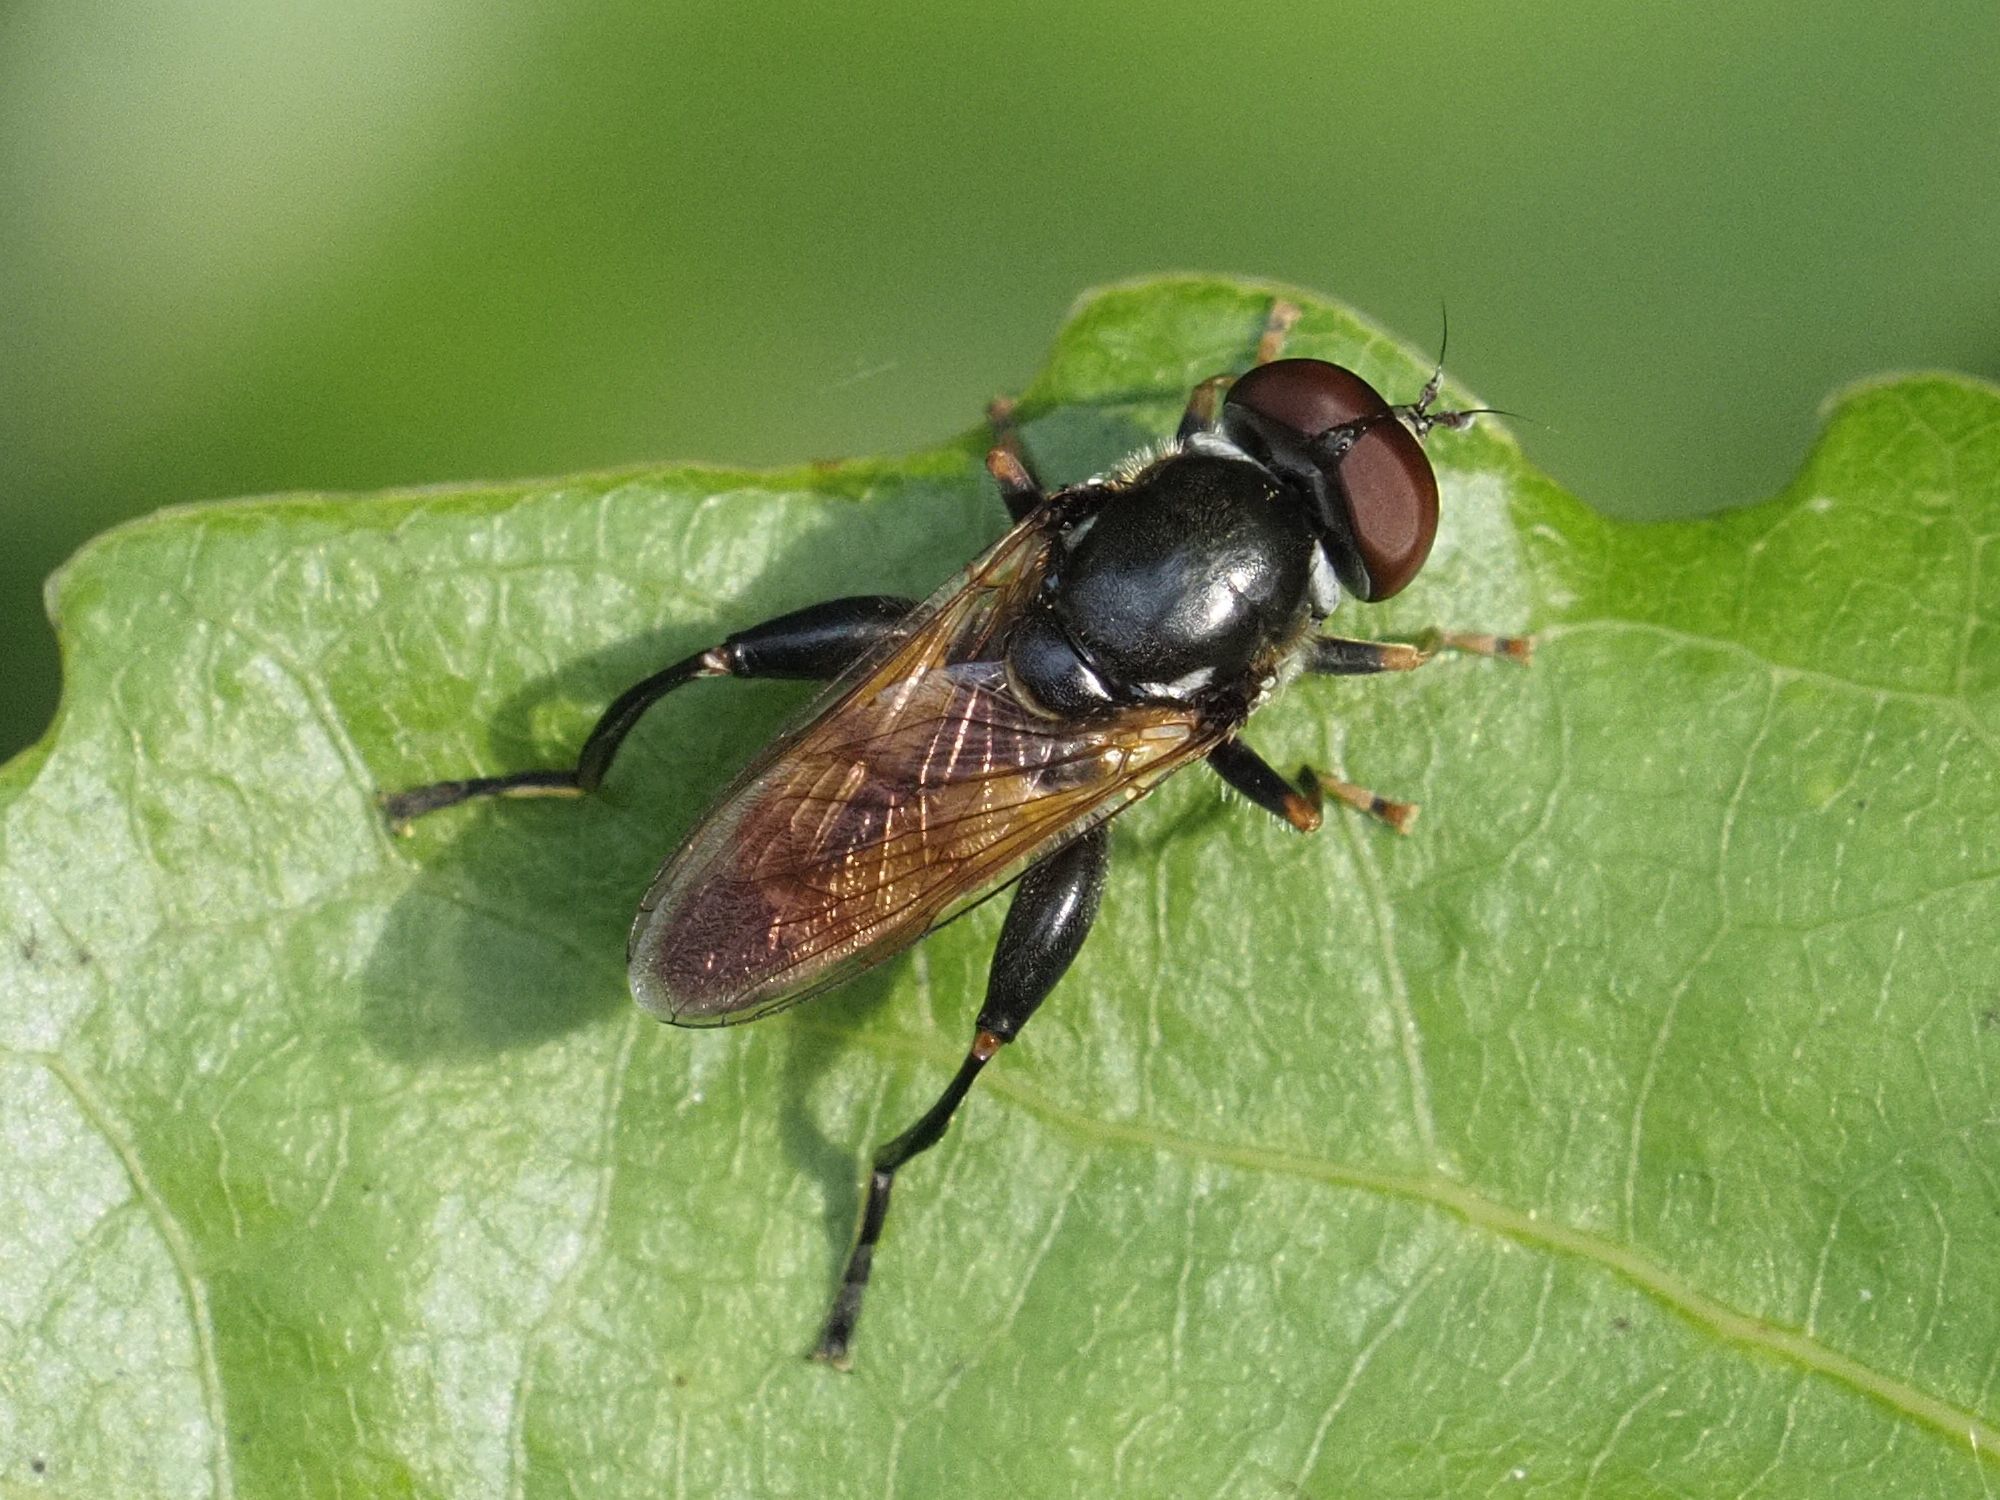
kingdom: Animalia
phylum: Arthropoda
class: Insecta
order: Diptera
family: Syrphidae
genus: Tropidia
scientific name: Tropidia scita
